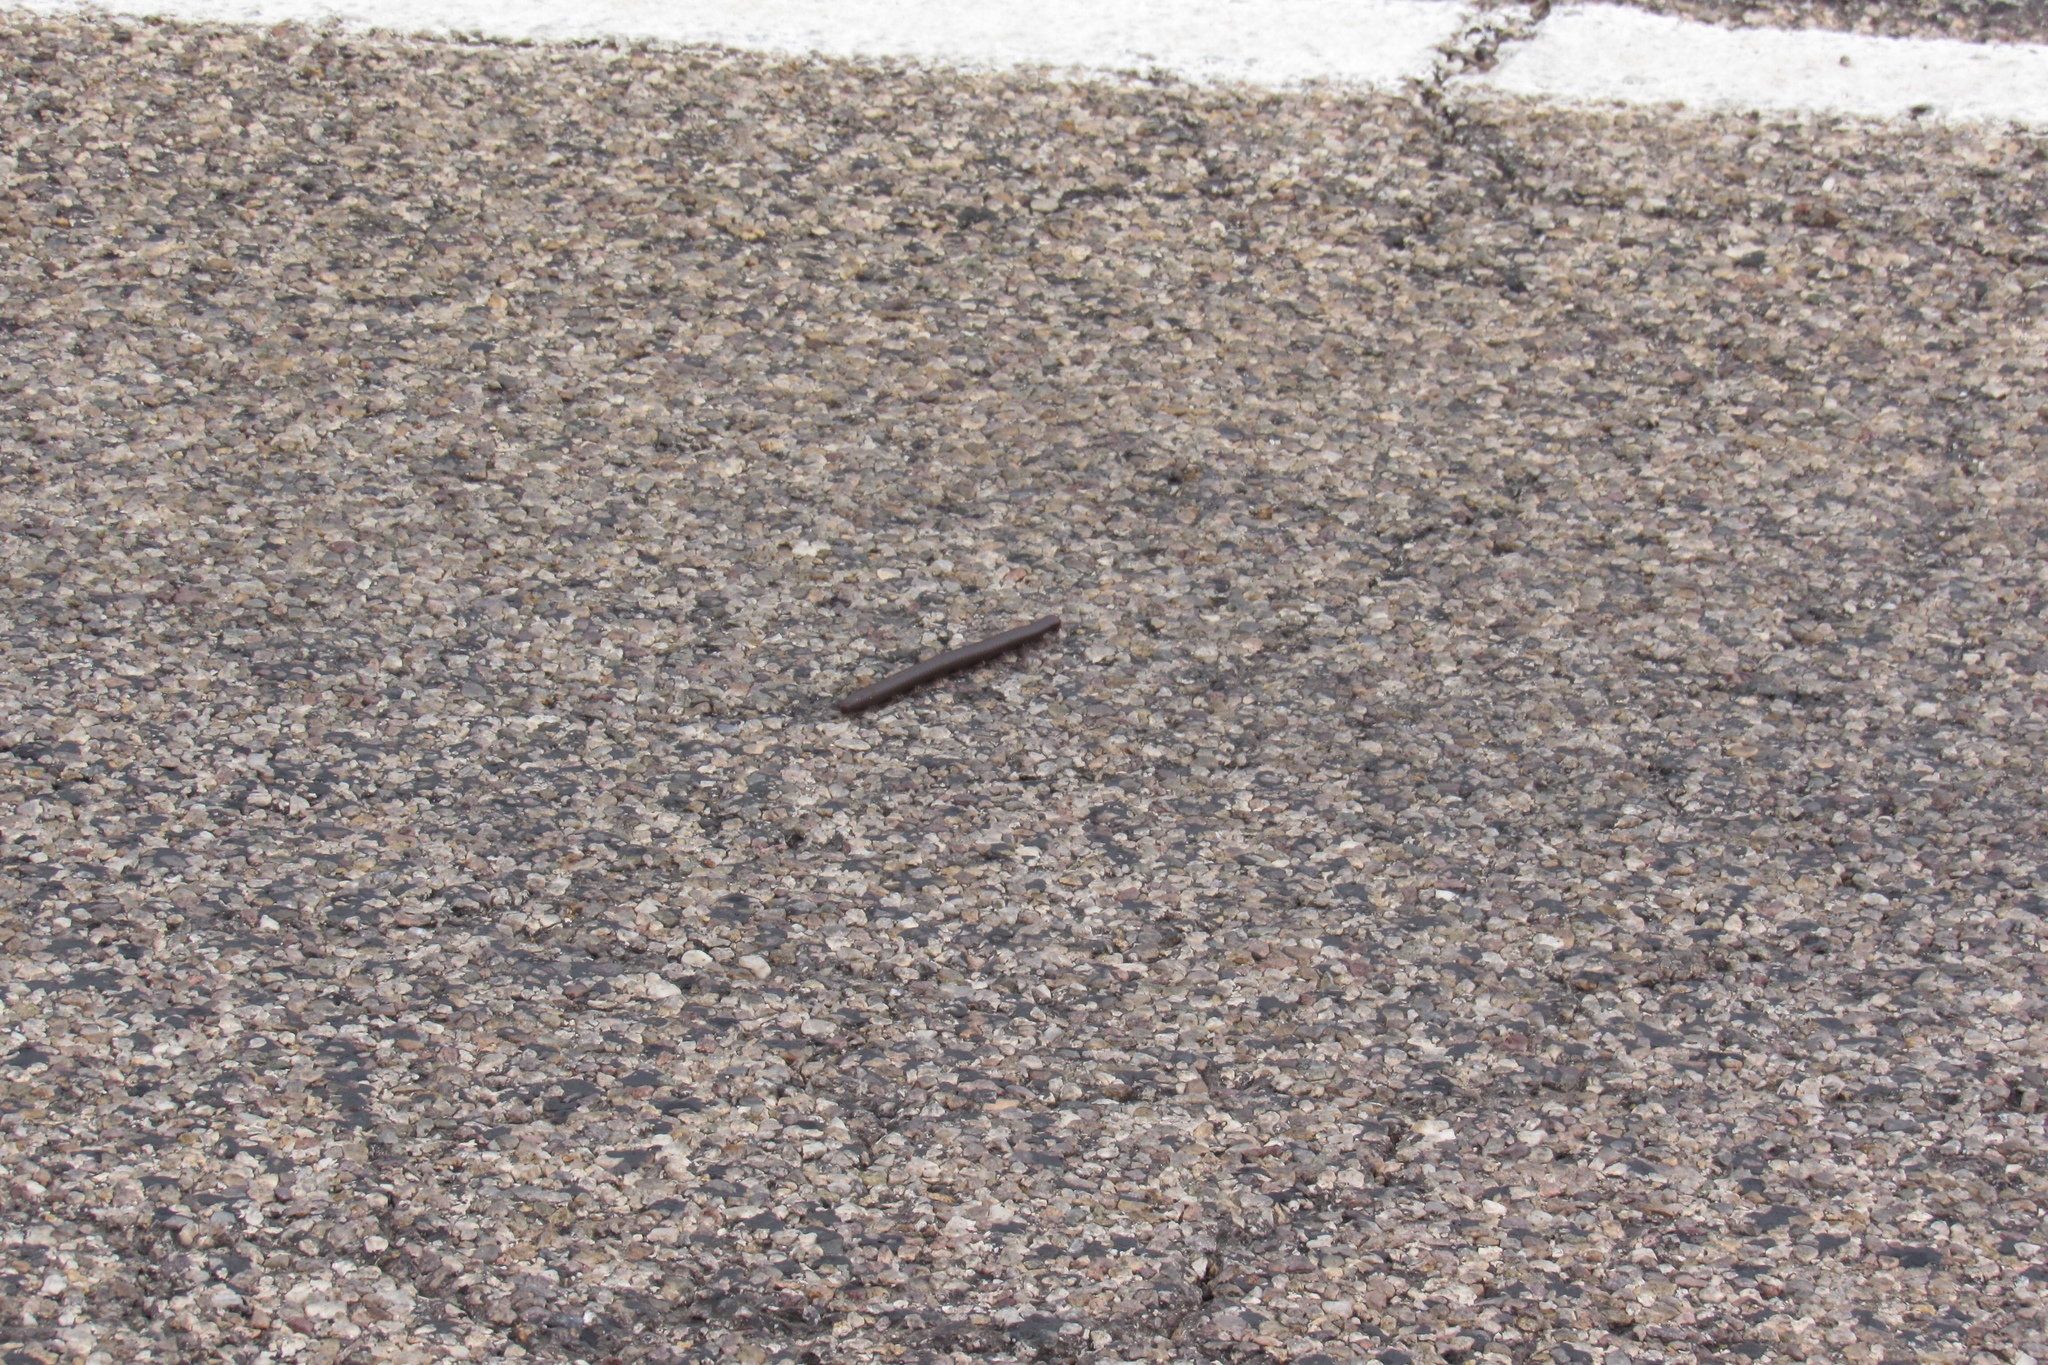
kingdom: Animalia
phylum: Arthropoda
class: Diplopoda
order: Spirostreptida
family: Spirostreptidae
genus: Orthoporus
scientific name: Orthoporus ornatus
